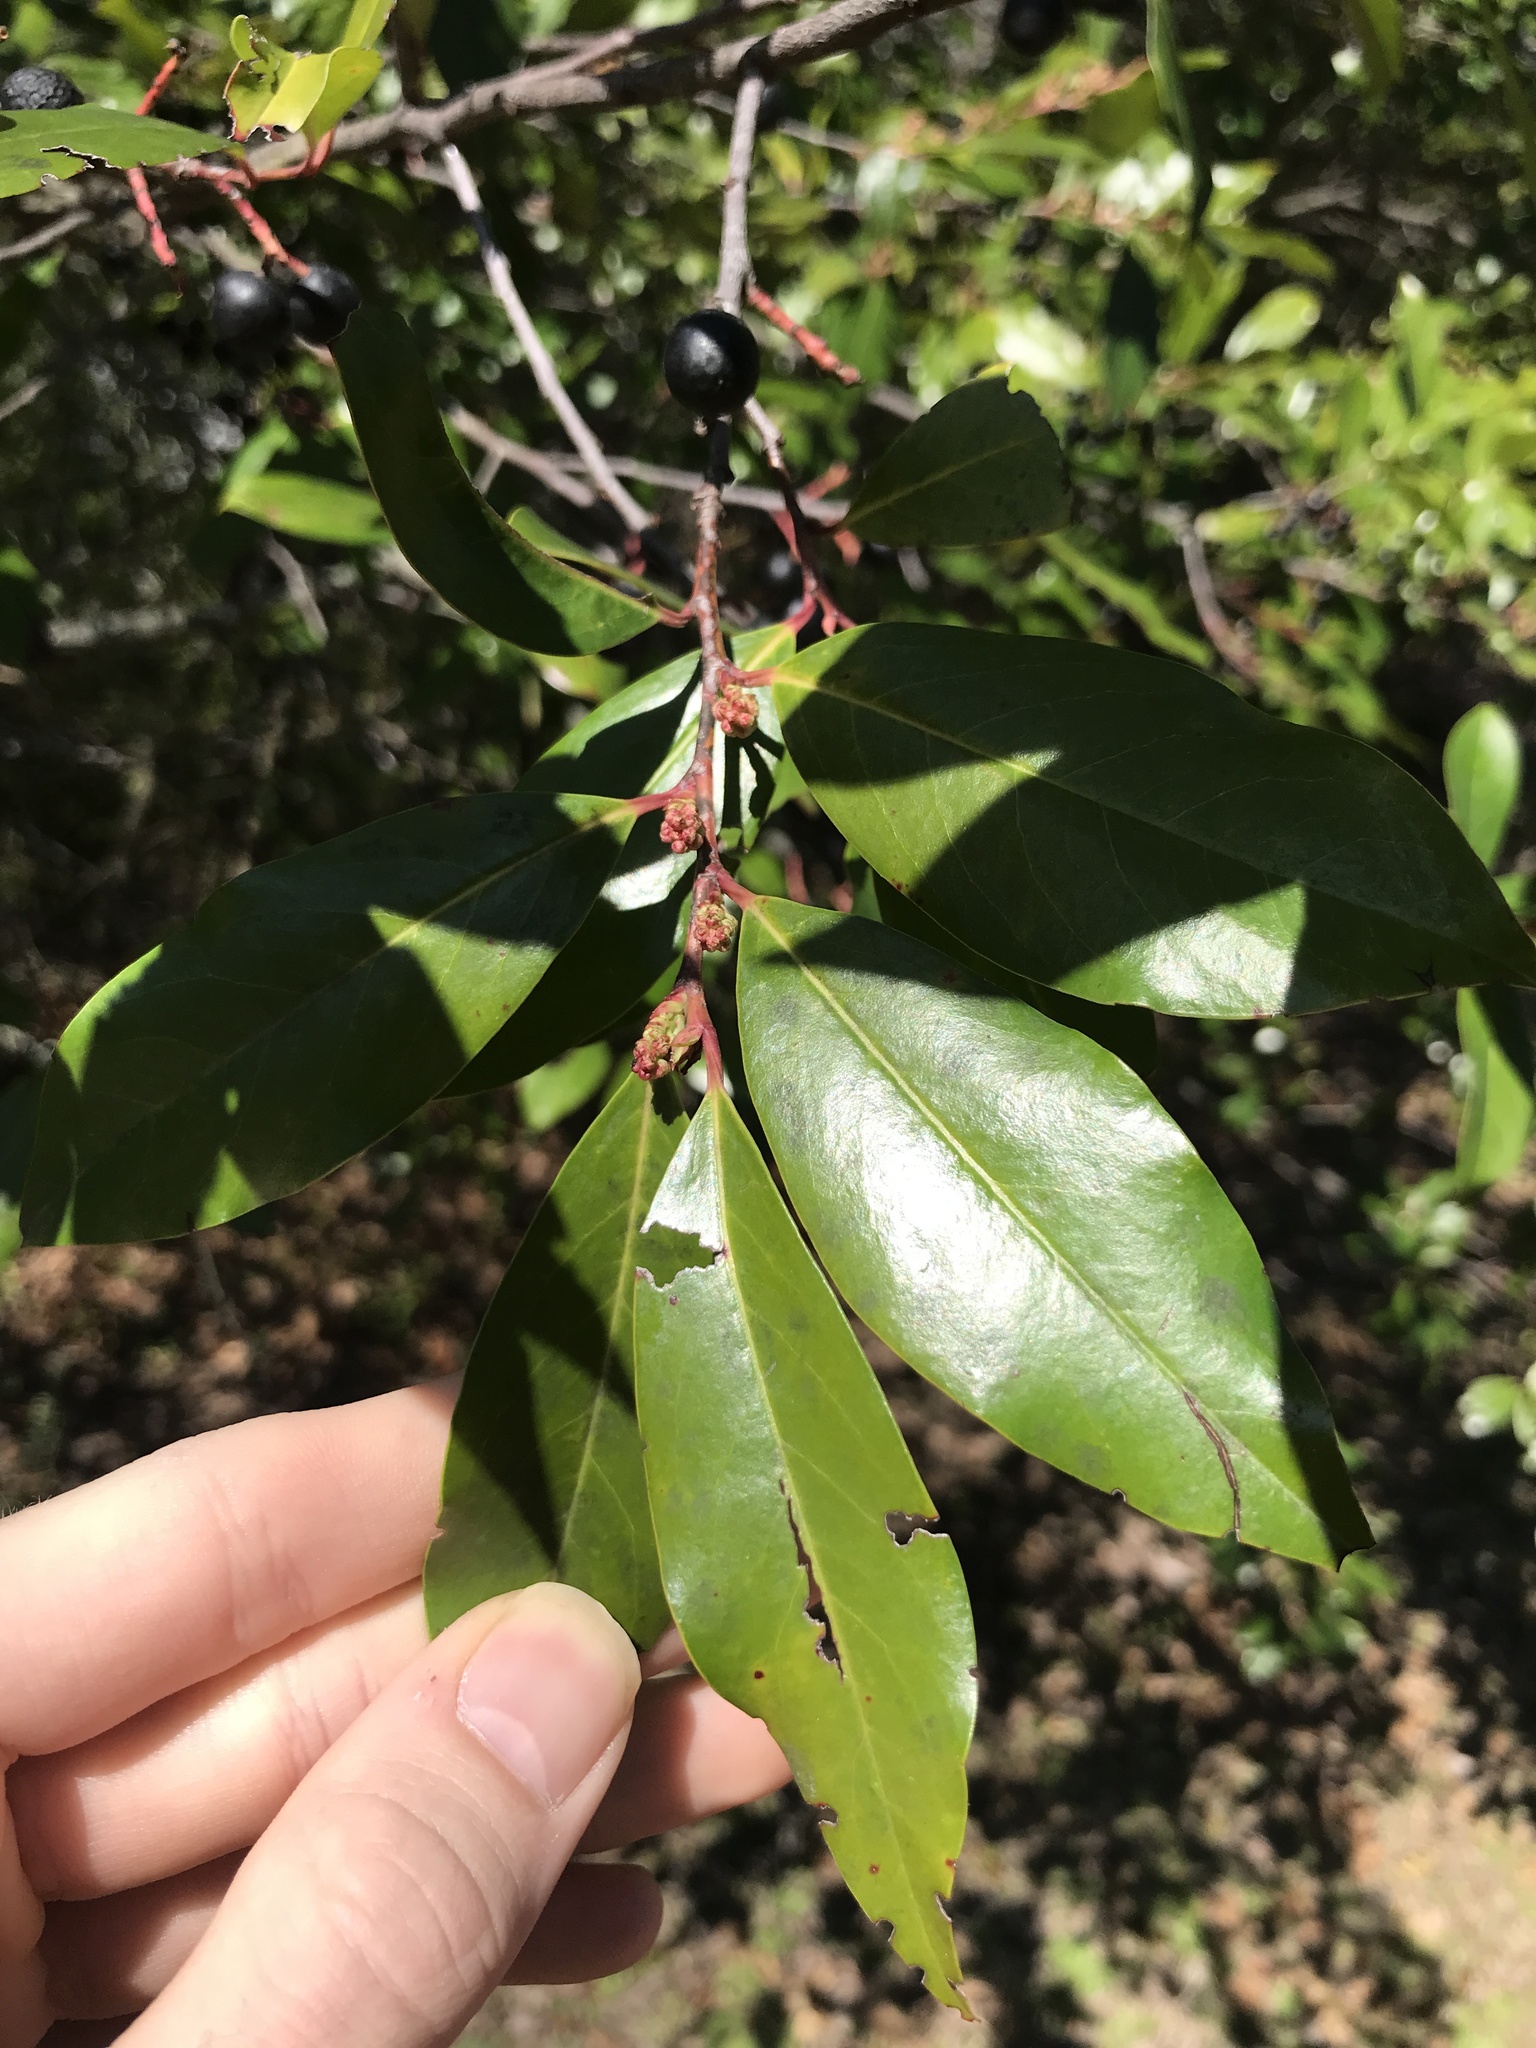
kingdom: Plantae
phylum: Tracheophyta
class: Magnoliopsida
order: Rosales
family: Rosaceae
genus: Prunus
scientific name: Prunus caroliniana
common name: Carolina laurel cherry
